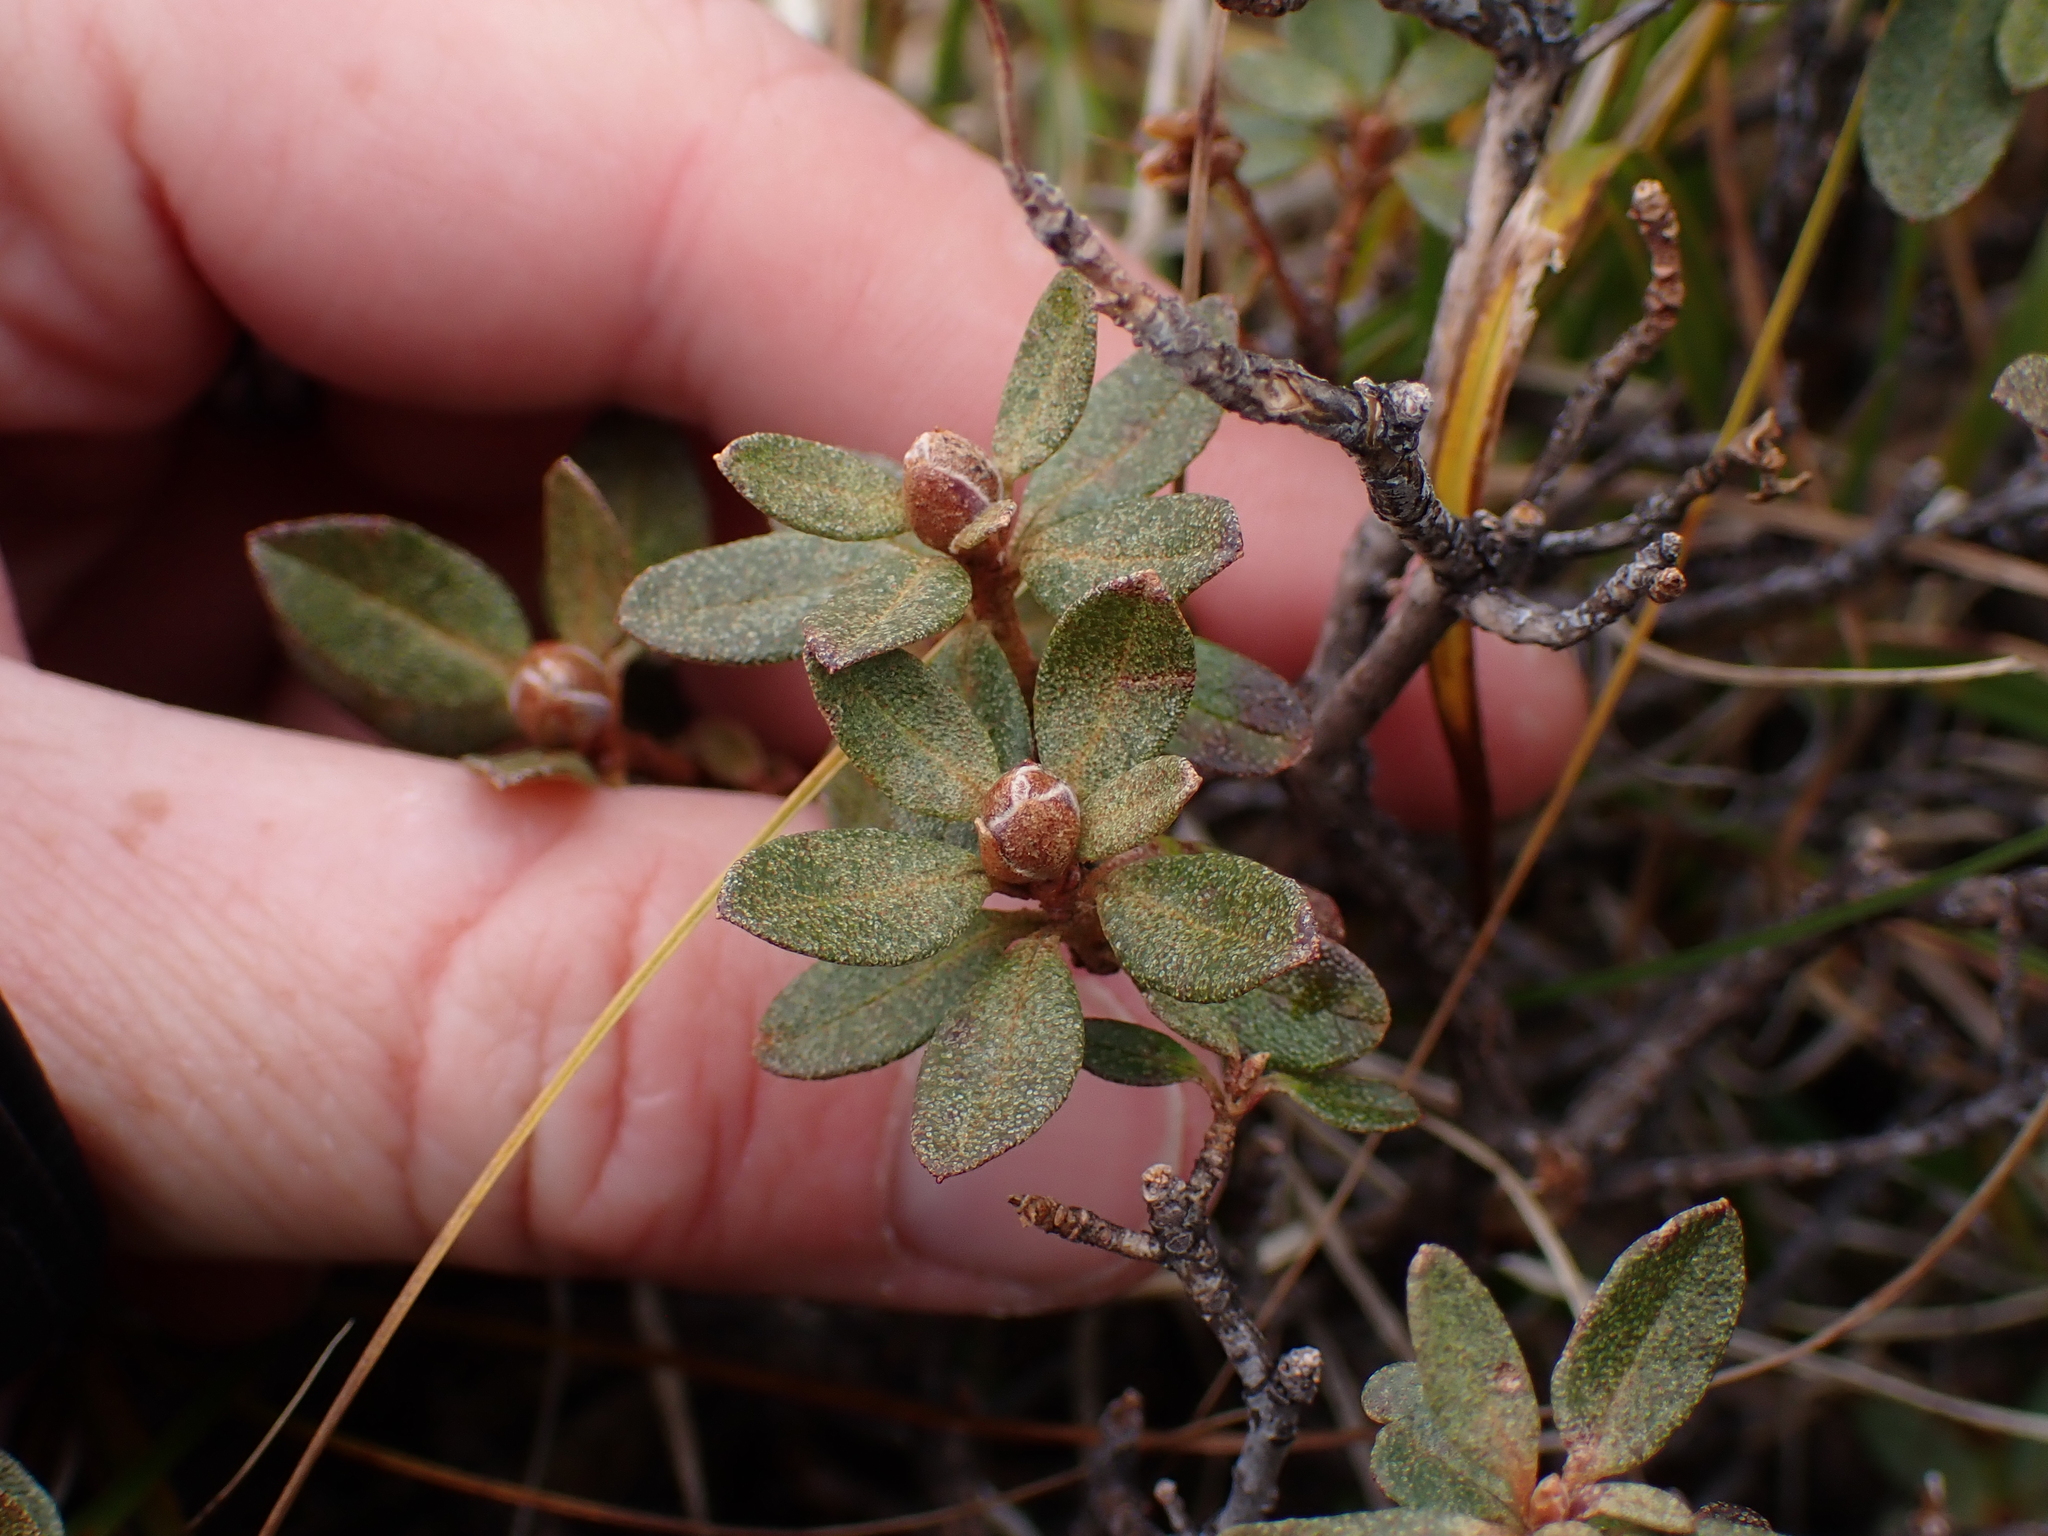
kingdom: Plantae
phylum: Tracheophyta
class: Magnoliopsida
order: Ericales
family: Ericaceae
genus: Rhododendron
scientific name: Rhododendron lapponicum
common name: Lapland rhododendron
